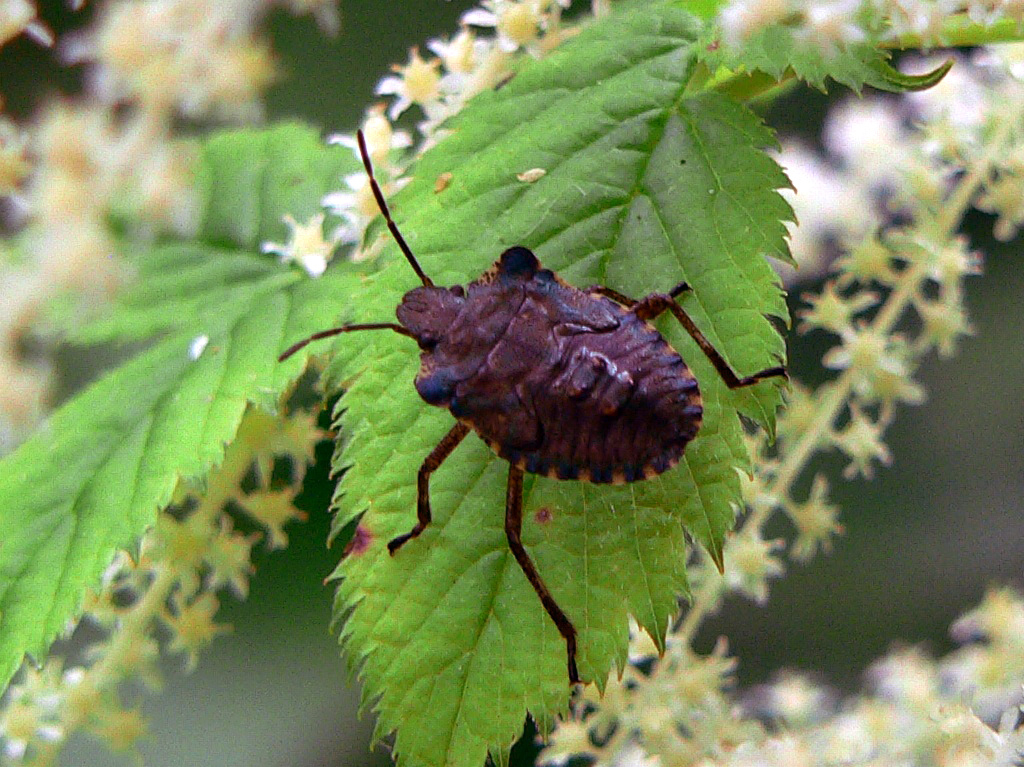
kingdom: Animalia
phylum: Arthropoda
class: Insecta
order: Hemiptera
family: Pentatomidae
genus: Pentatoma
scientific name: Pentatoma rufipes
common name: Forest bug
